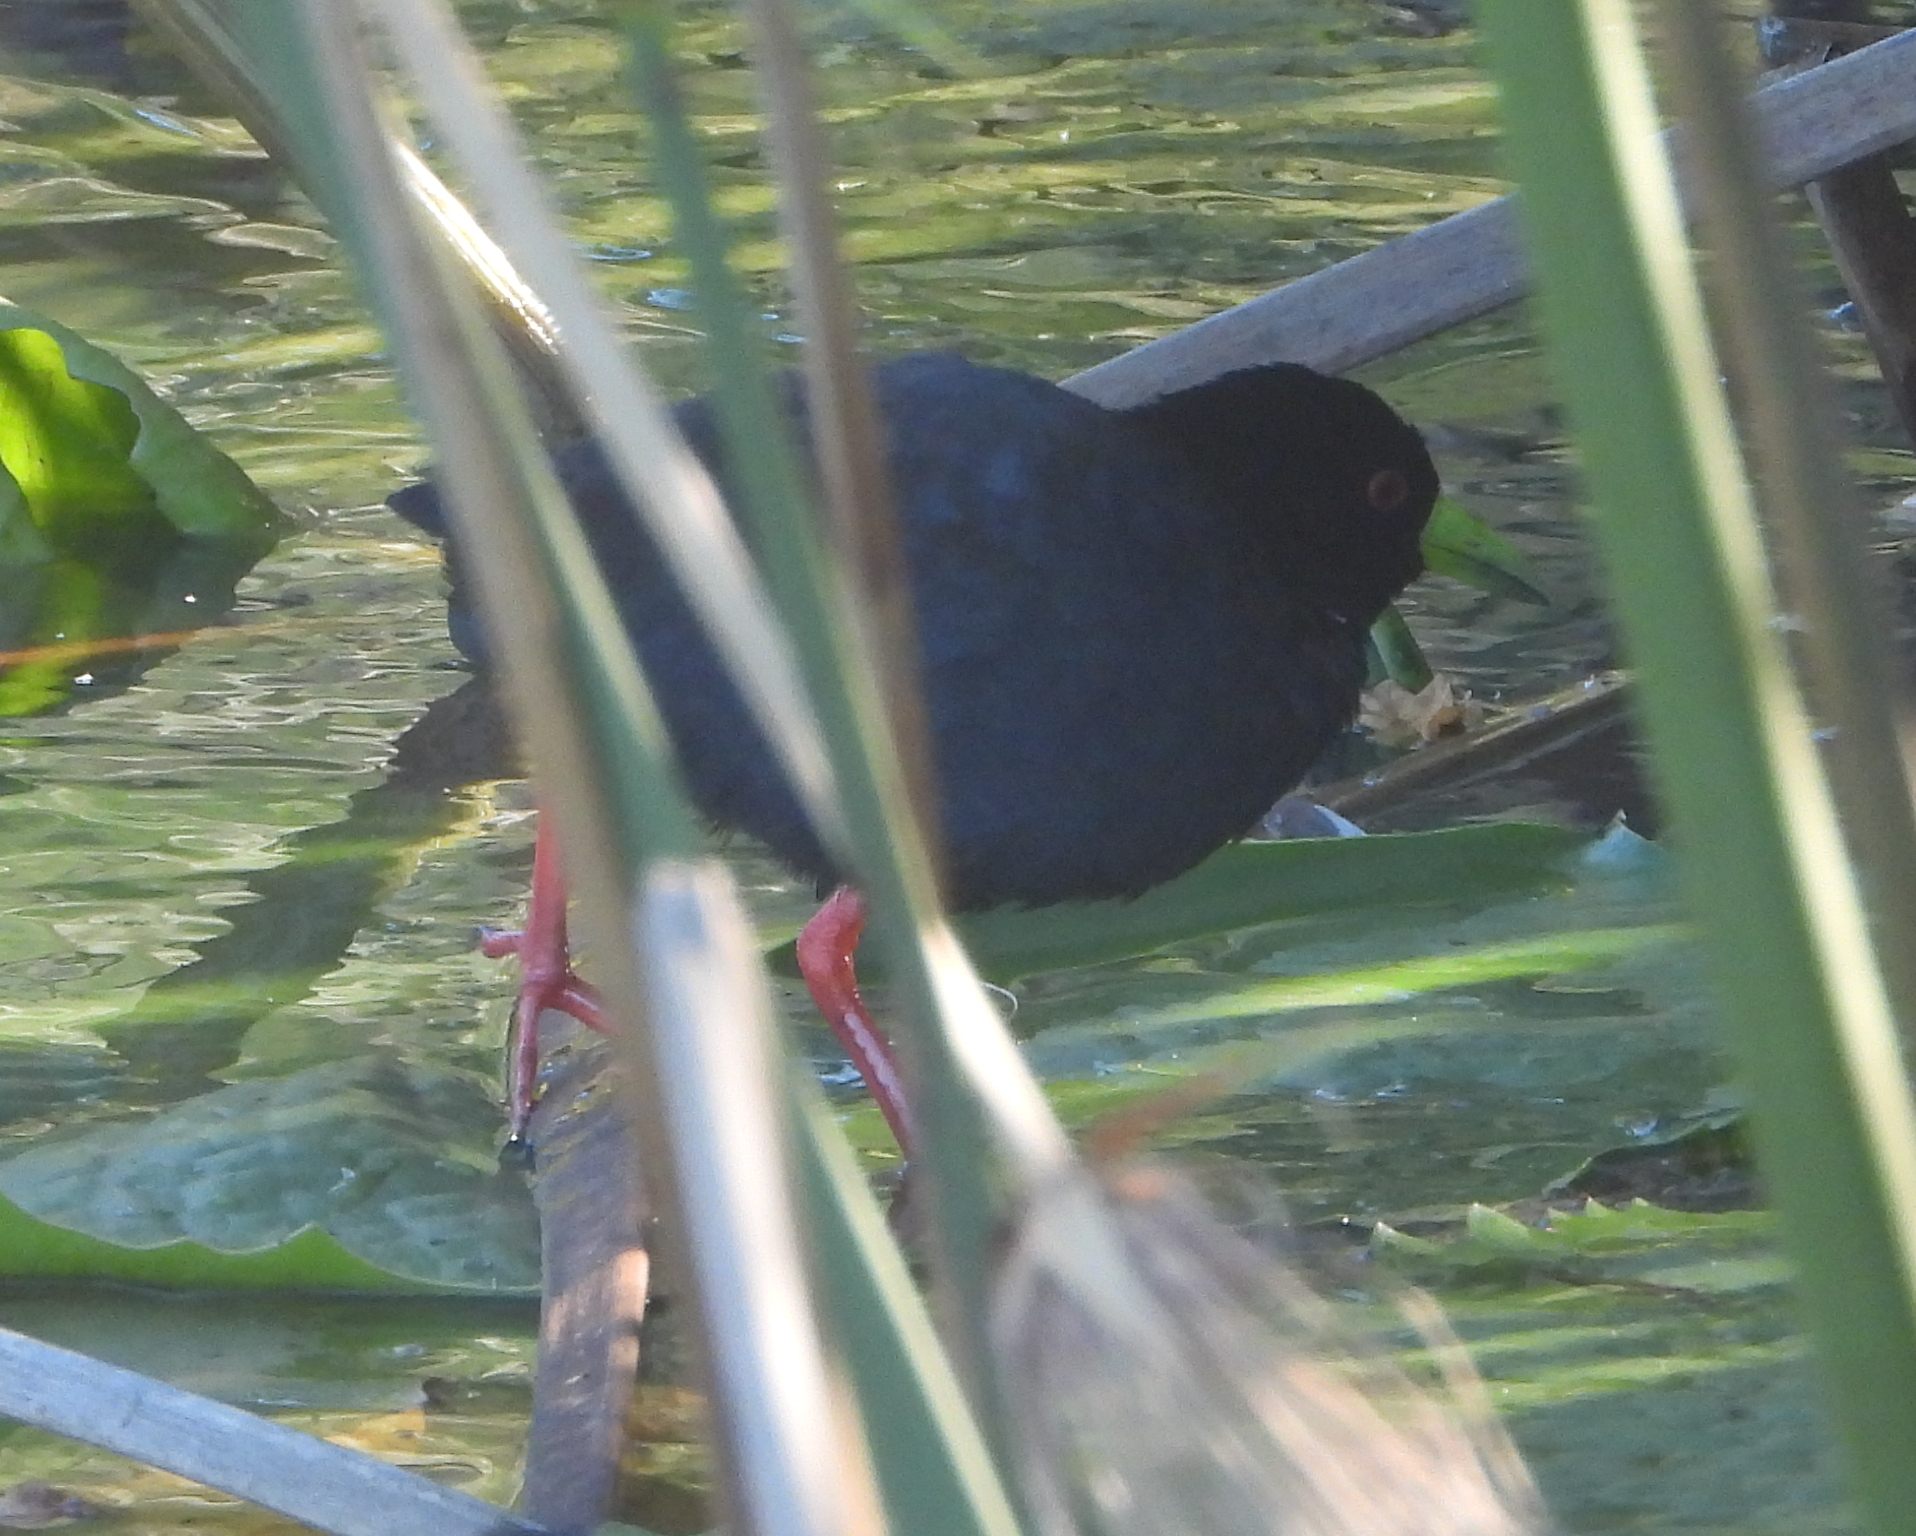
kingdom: Animalia
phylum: Chordata
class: Aves
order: Gruiformes
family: Rallidae
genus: Amaurornis
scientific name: Amaurornis flavirostra
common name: Black crake
